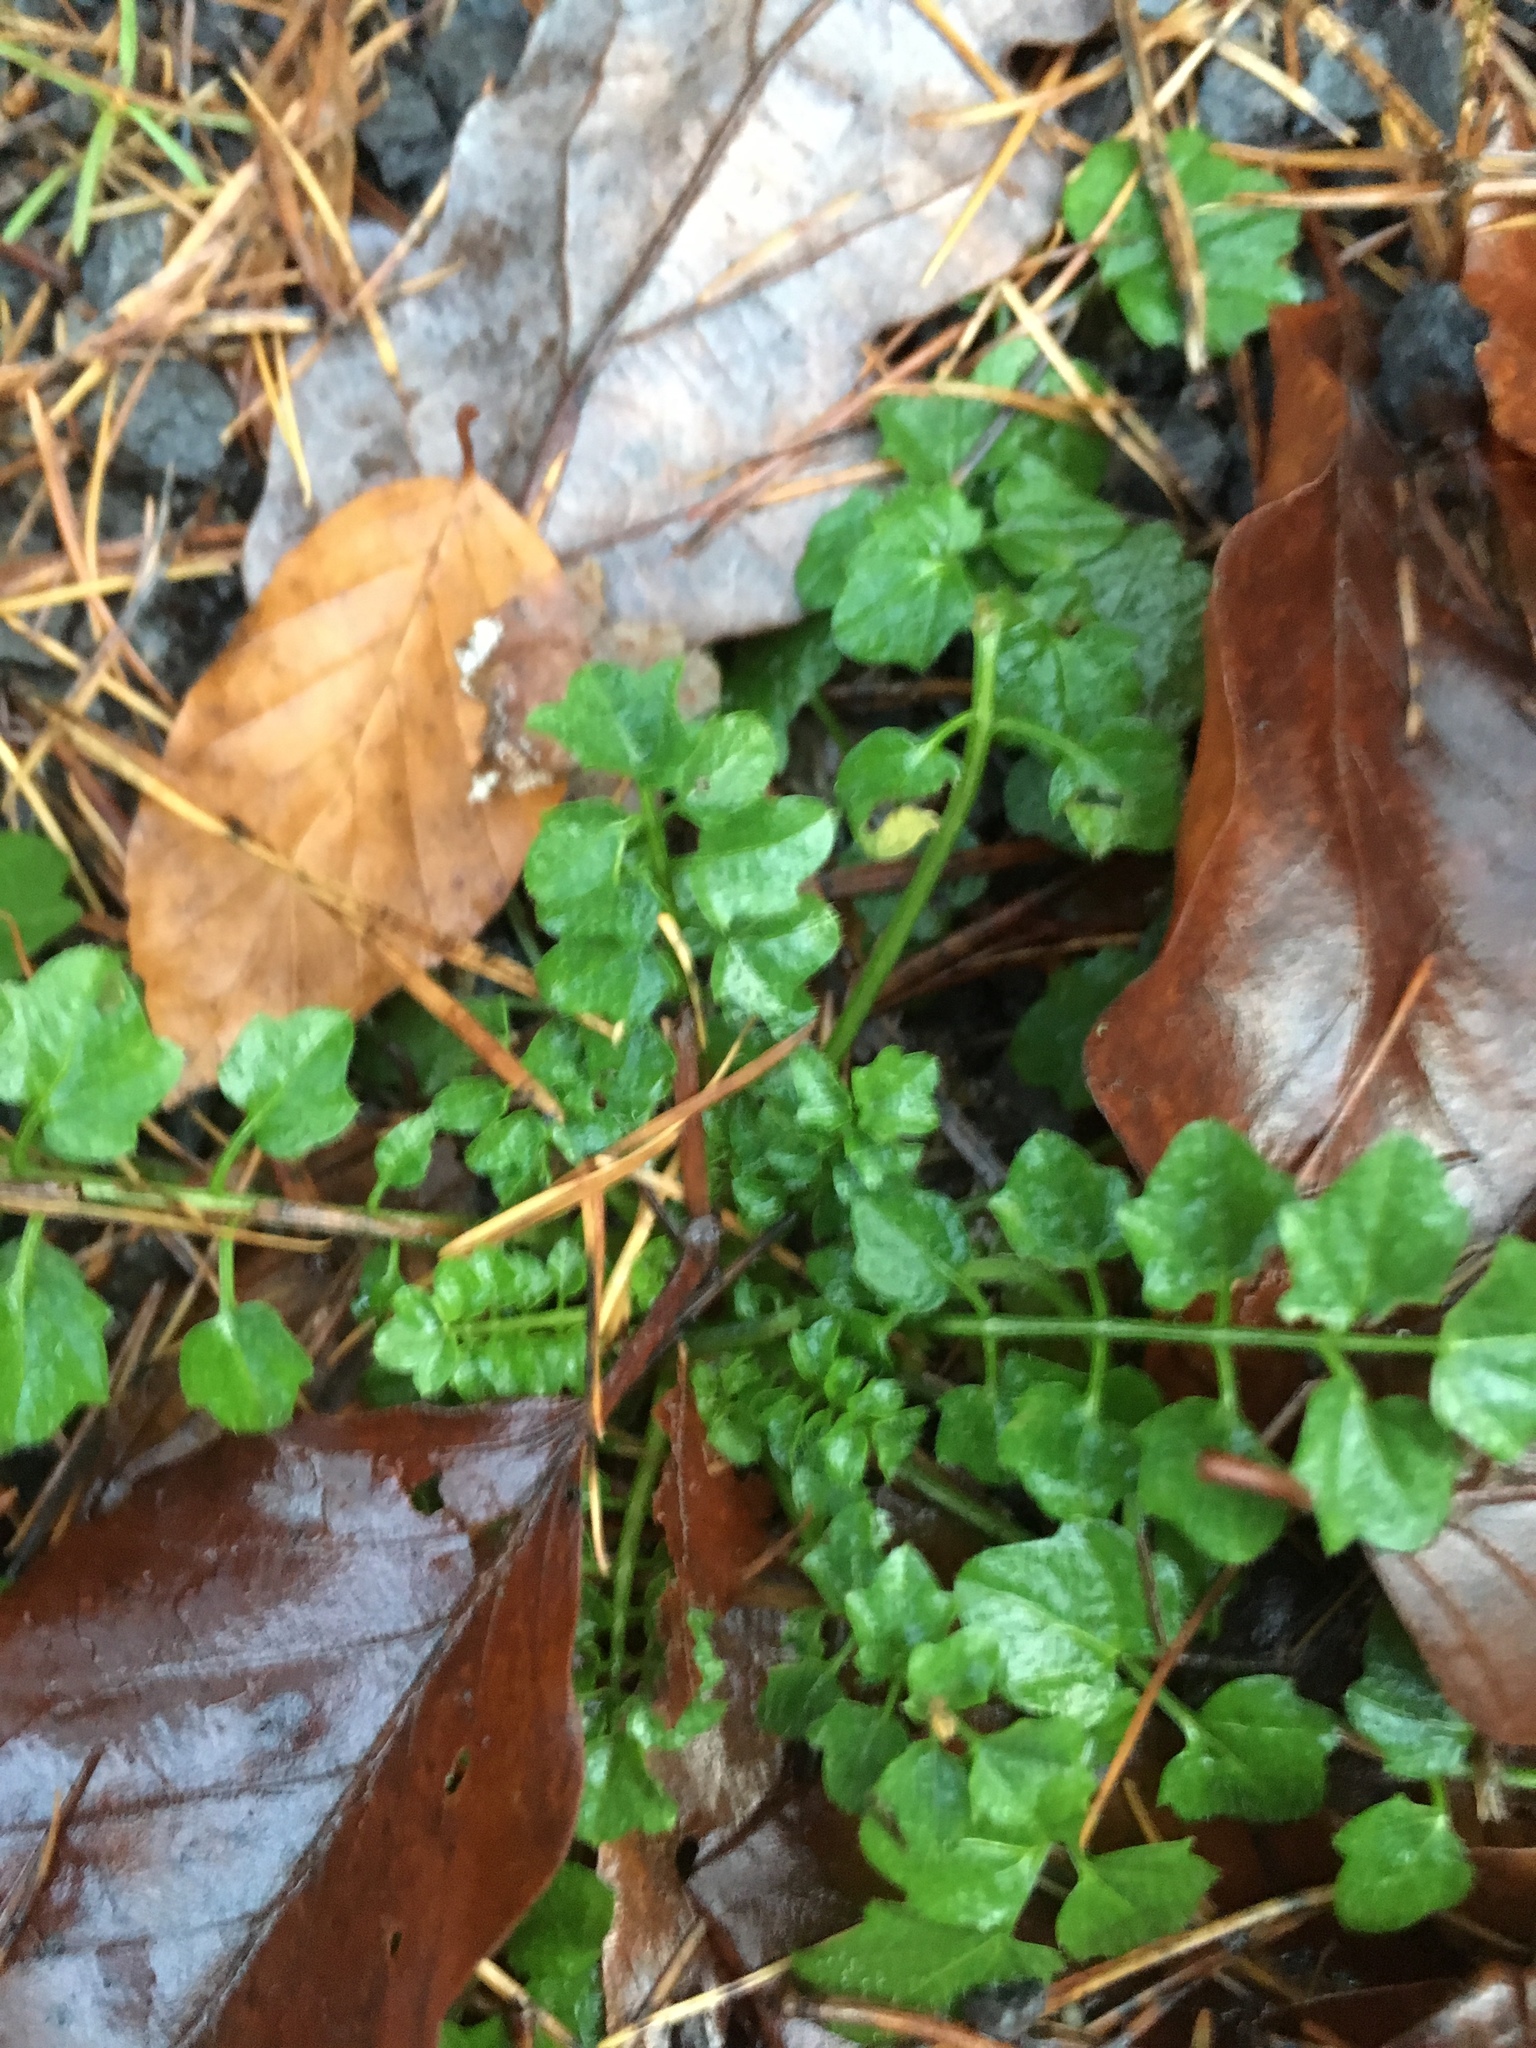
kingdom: Plantae
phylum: Tracheophyta
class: Magnoliopsida
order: Brassicales
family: Brassicaceae
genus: Cardamine
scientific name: Cardamine flexuosa
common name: Woodland bittercress
